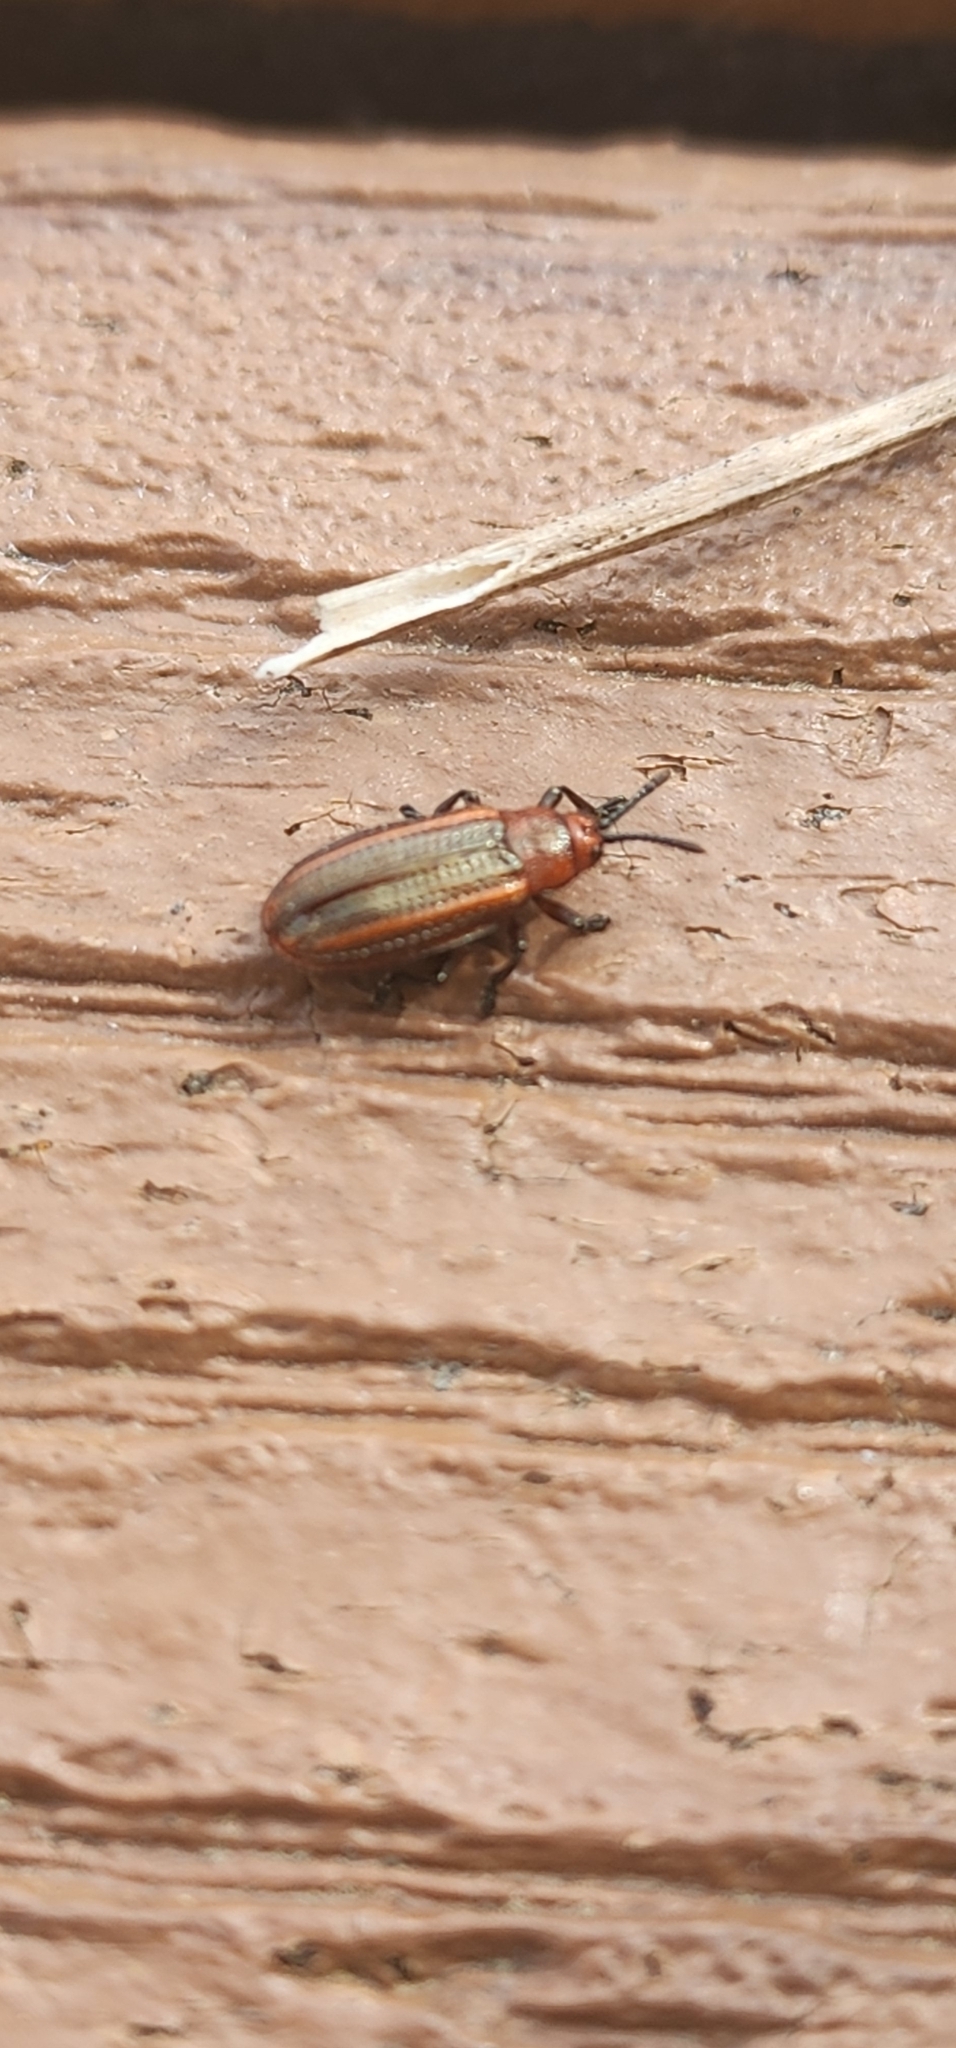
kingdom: Animalia
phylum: Arthropoda
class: Insecta
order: Coleoptera
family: Chrysomelidae
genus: Microrhopala
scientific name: Microrhopala vittata
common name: Goldenrod leaf miner beetle
